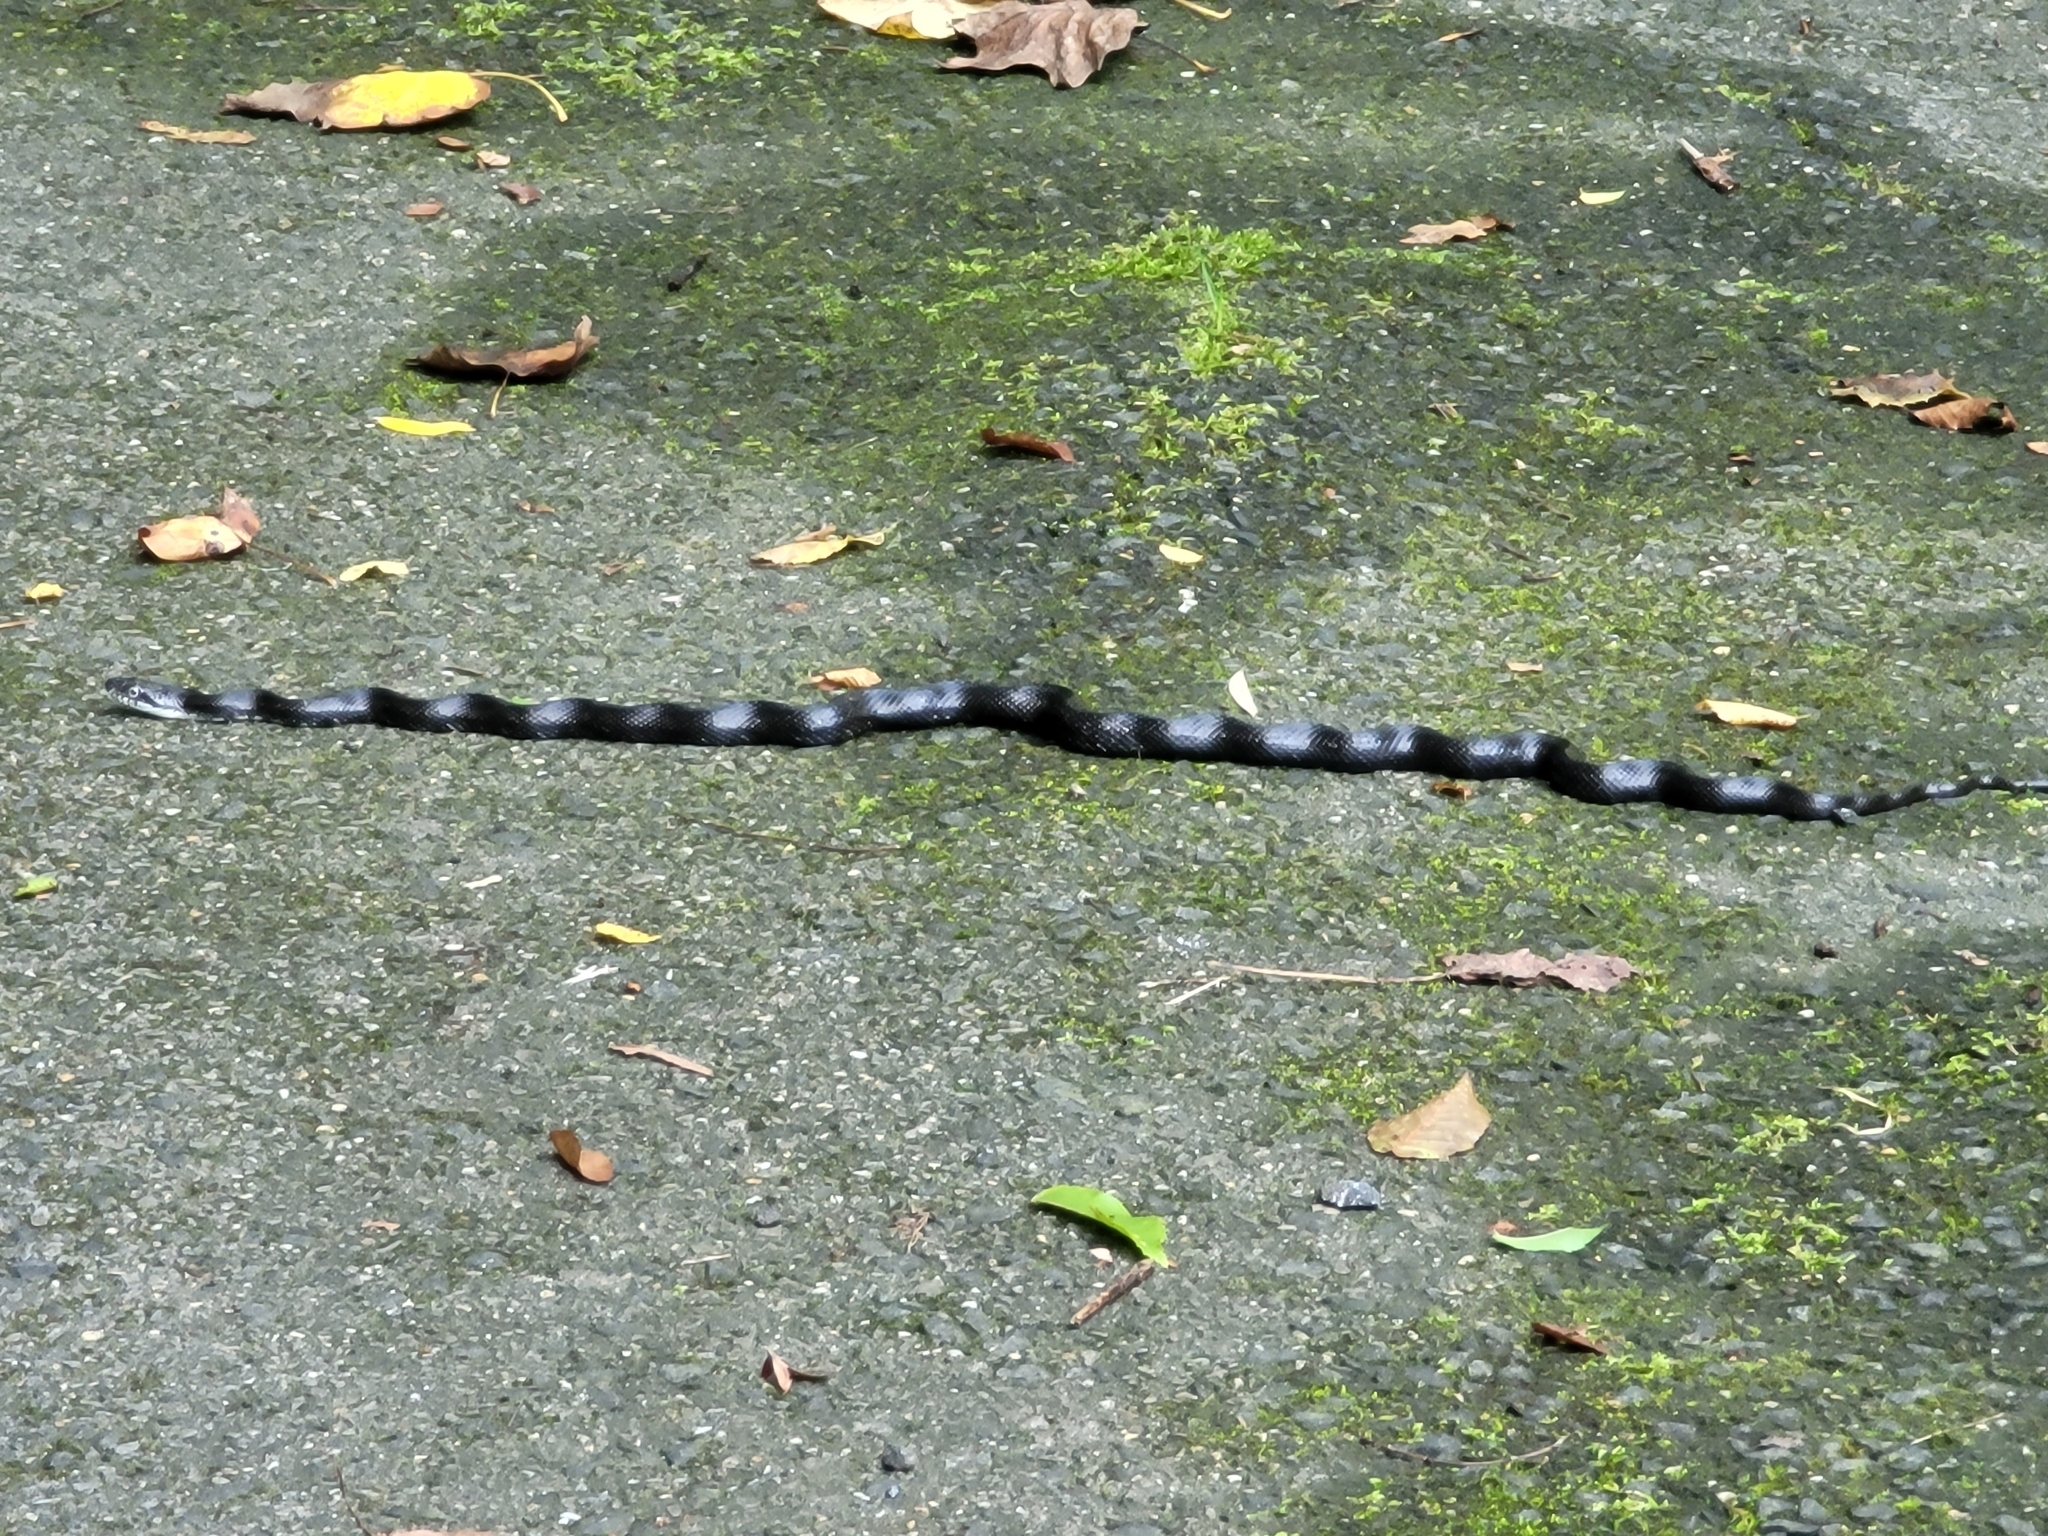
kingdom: Animalia
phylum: Chordata
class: Squamata
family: Colubridae
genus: Pantherophis
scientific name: Pantherophis
